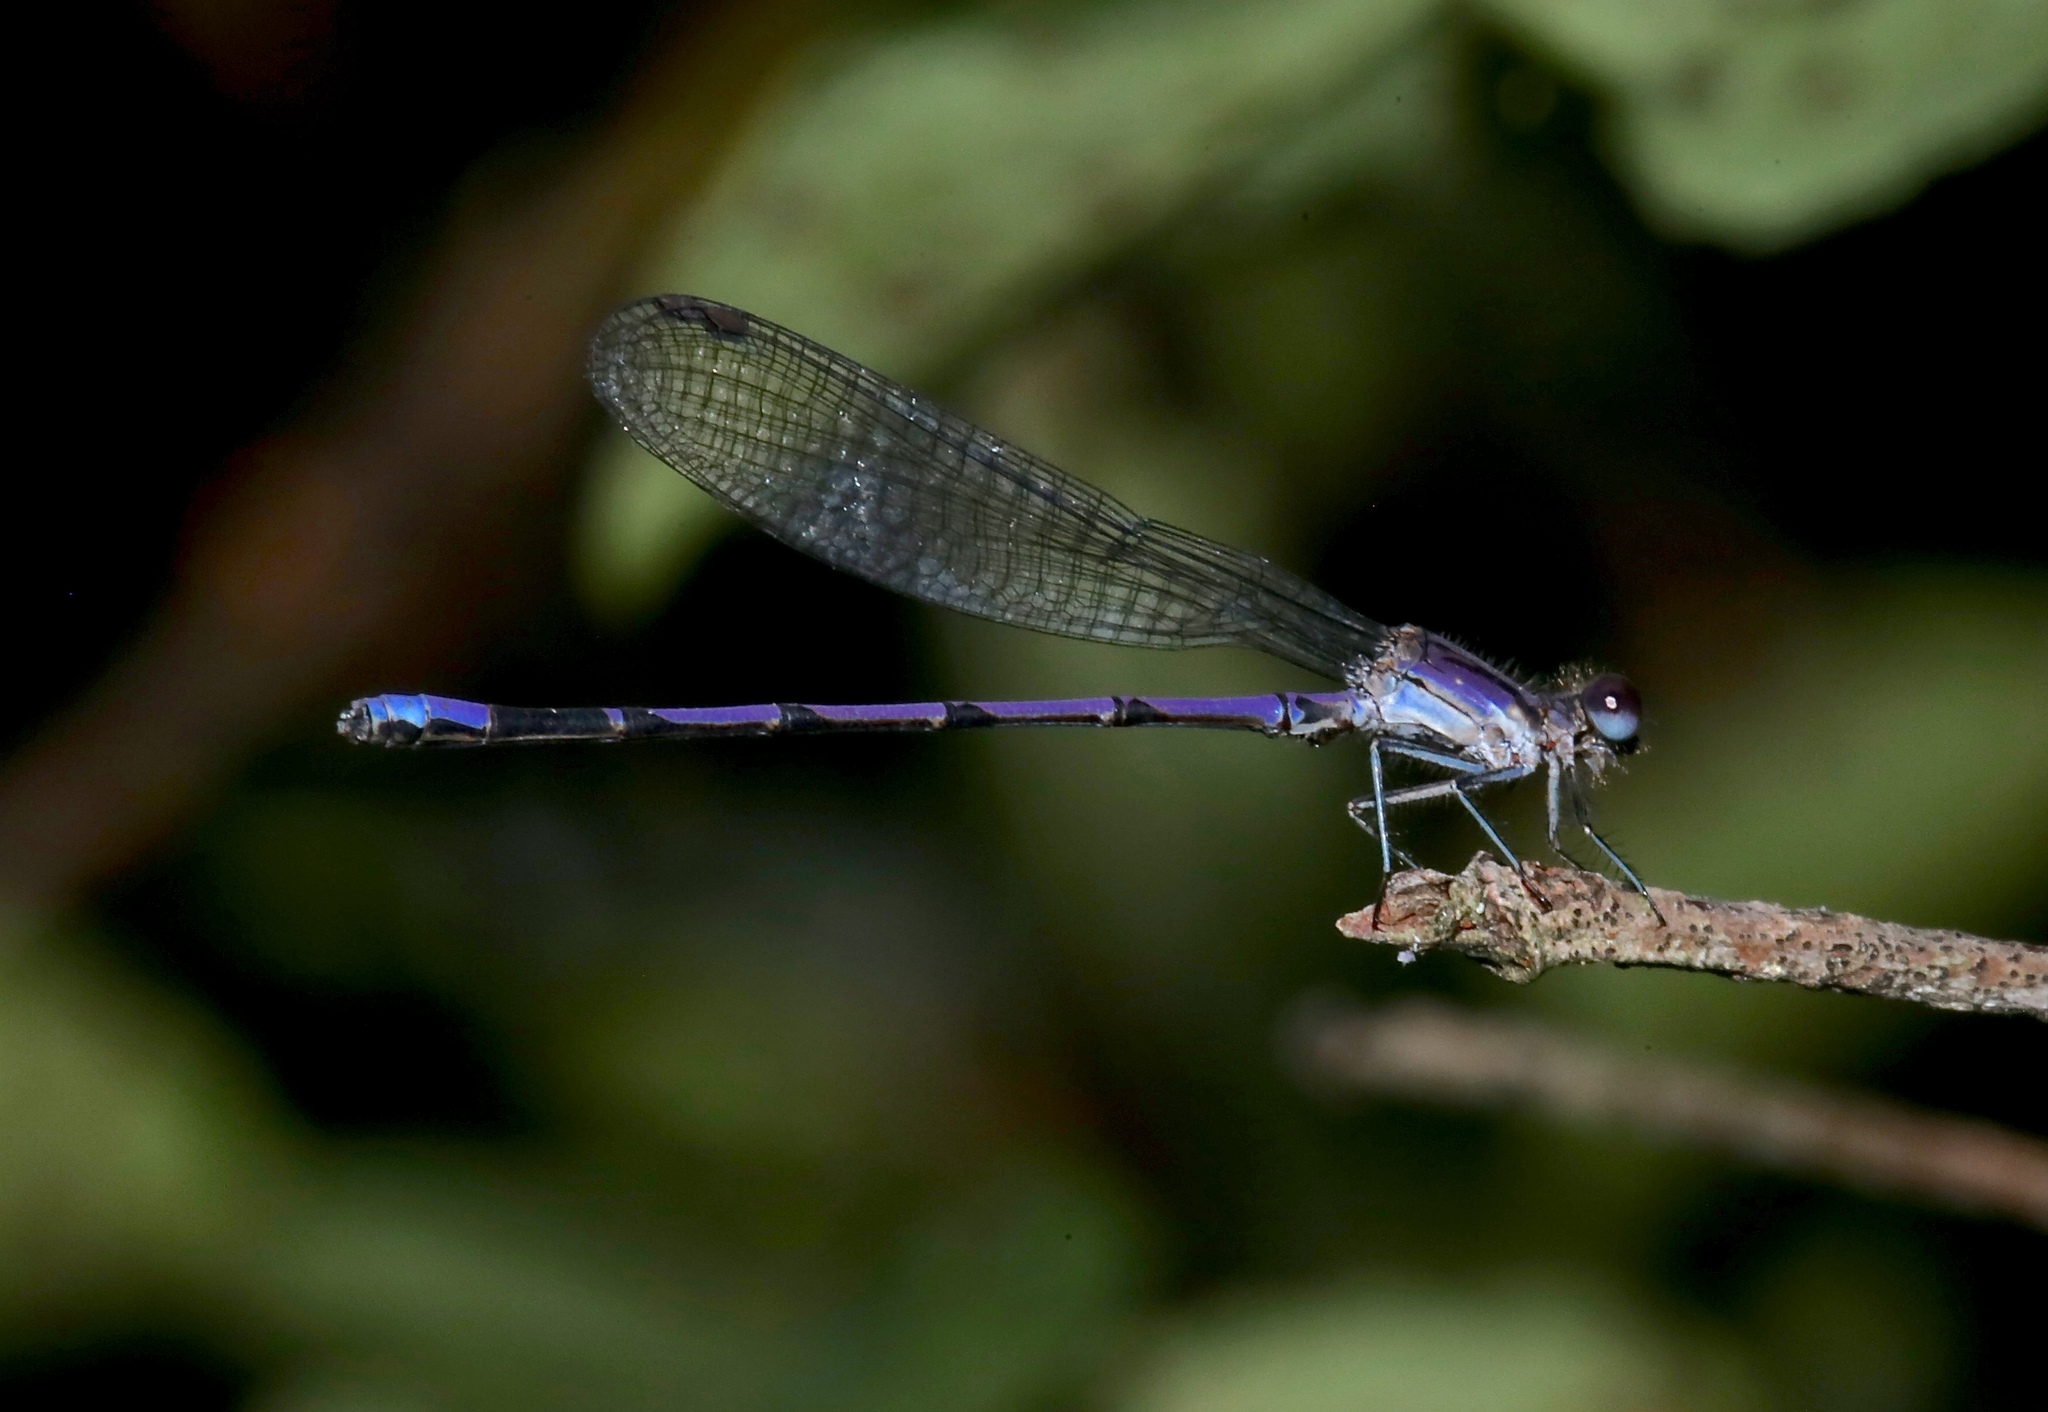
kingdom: Animalia
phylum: Arthropoda
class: Insecta
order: Odonata
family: Coenagrionidae
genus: Argia
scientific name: Argia fumipennis
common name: Variable dancer
